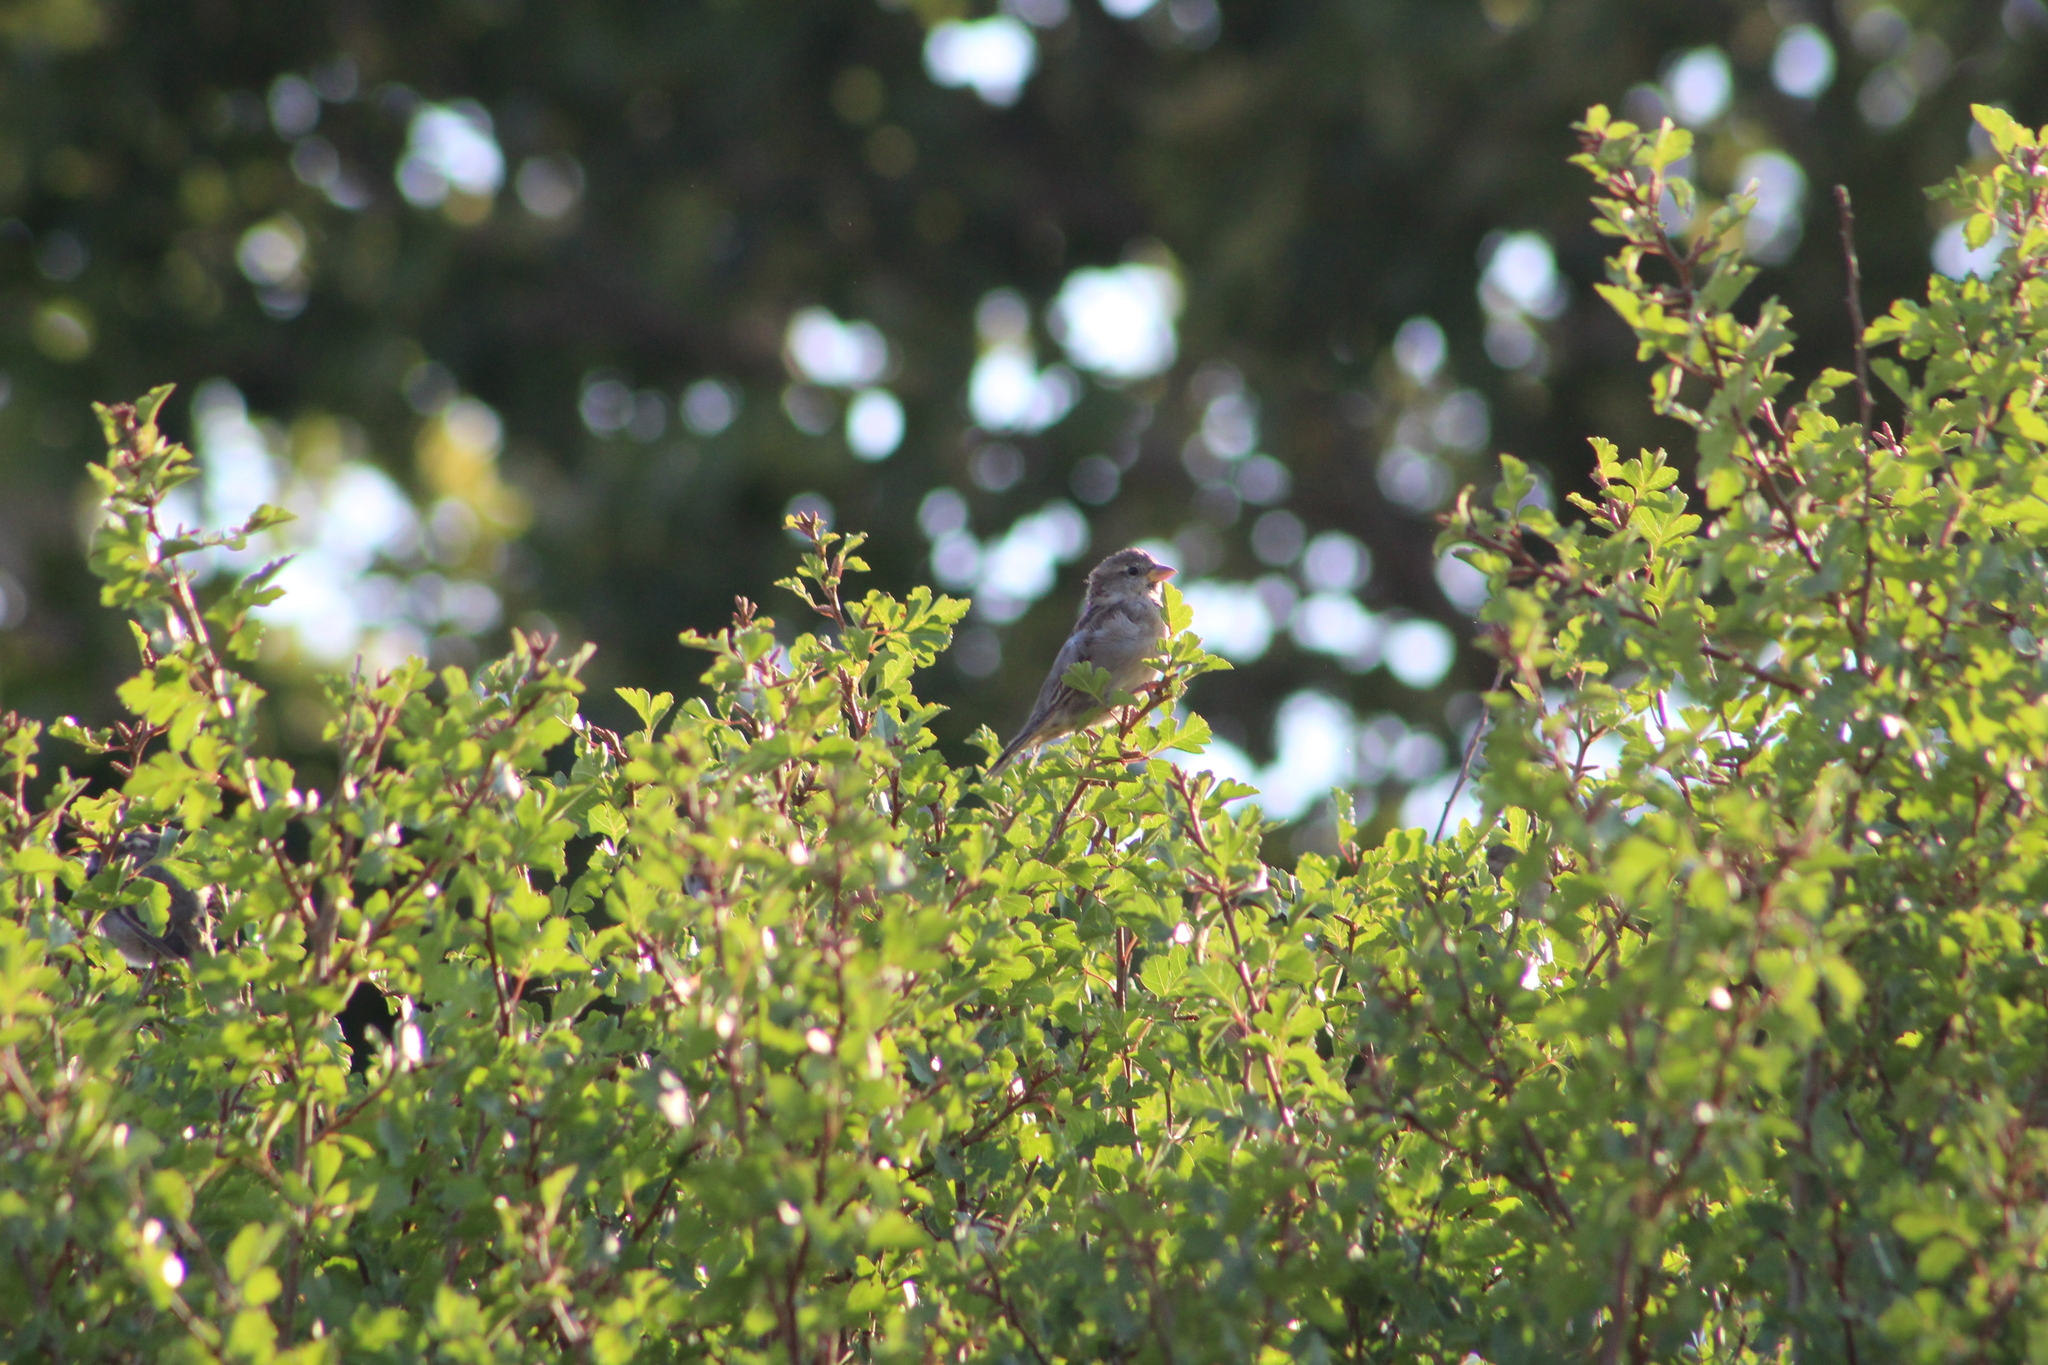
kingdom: Animalia
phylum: Chordata
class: Aves
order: Passeriformes
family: Passeridae
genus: Passer
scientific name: Passer domesticus
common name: House sparrow
